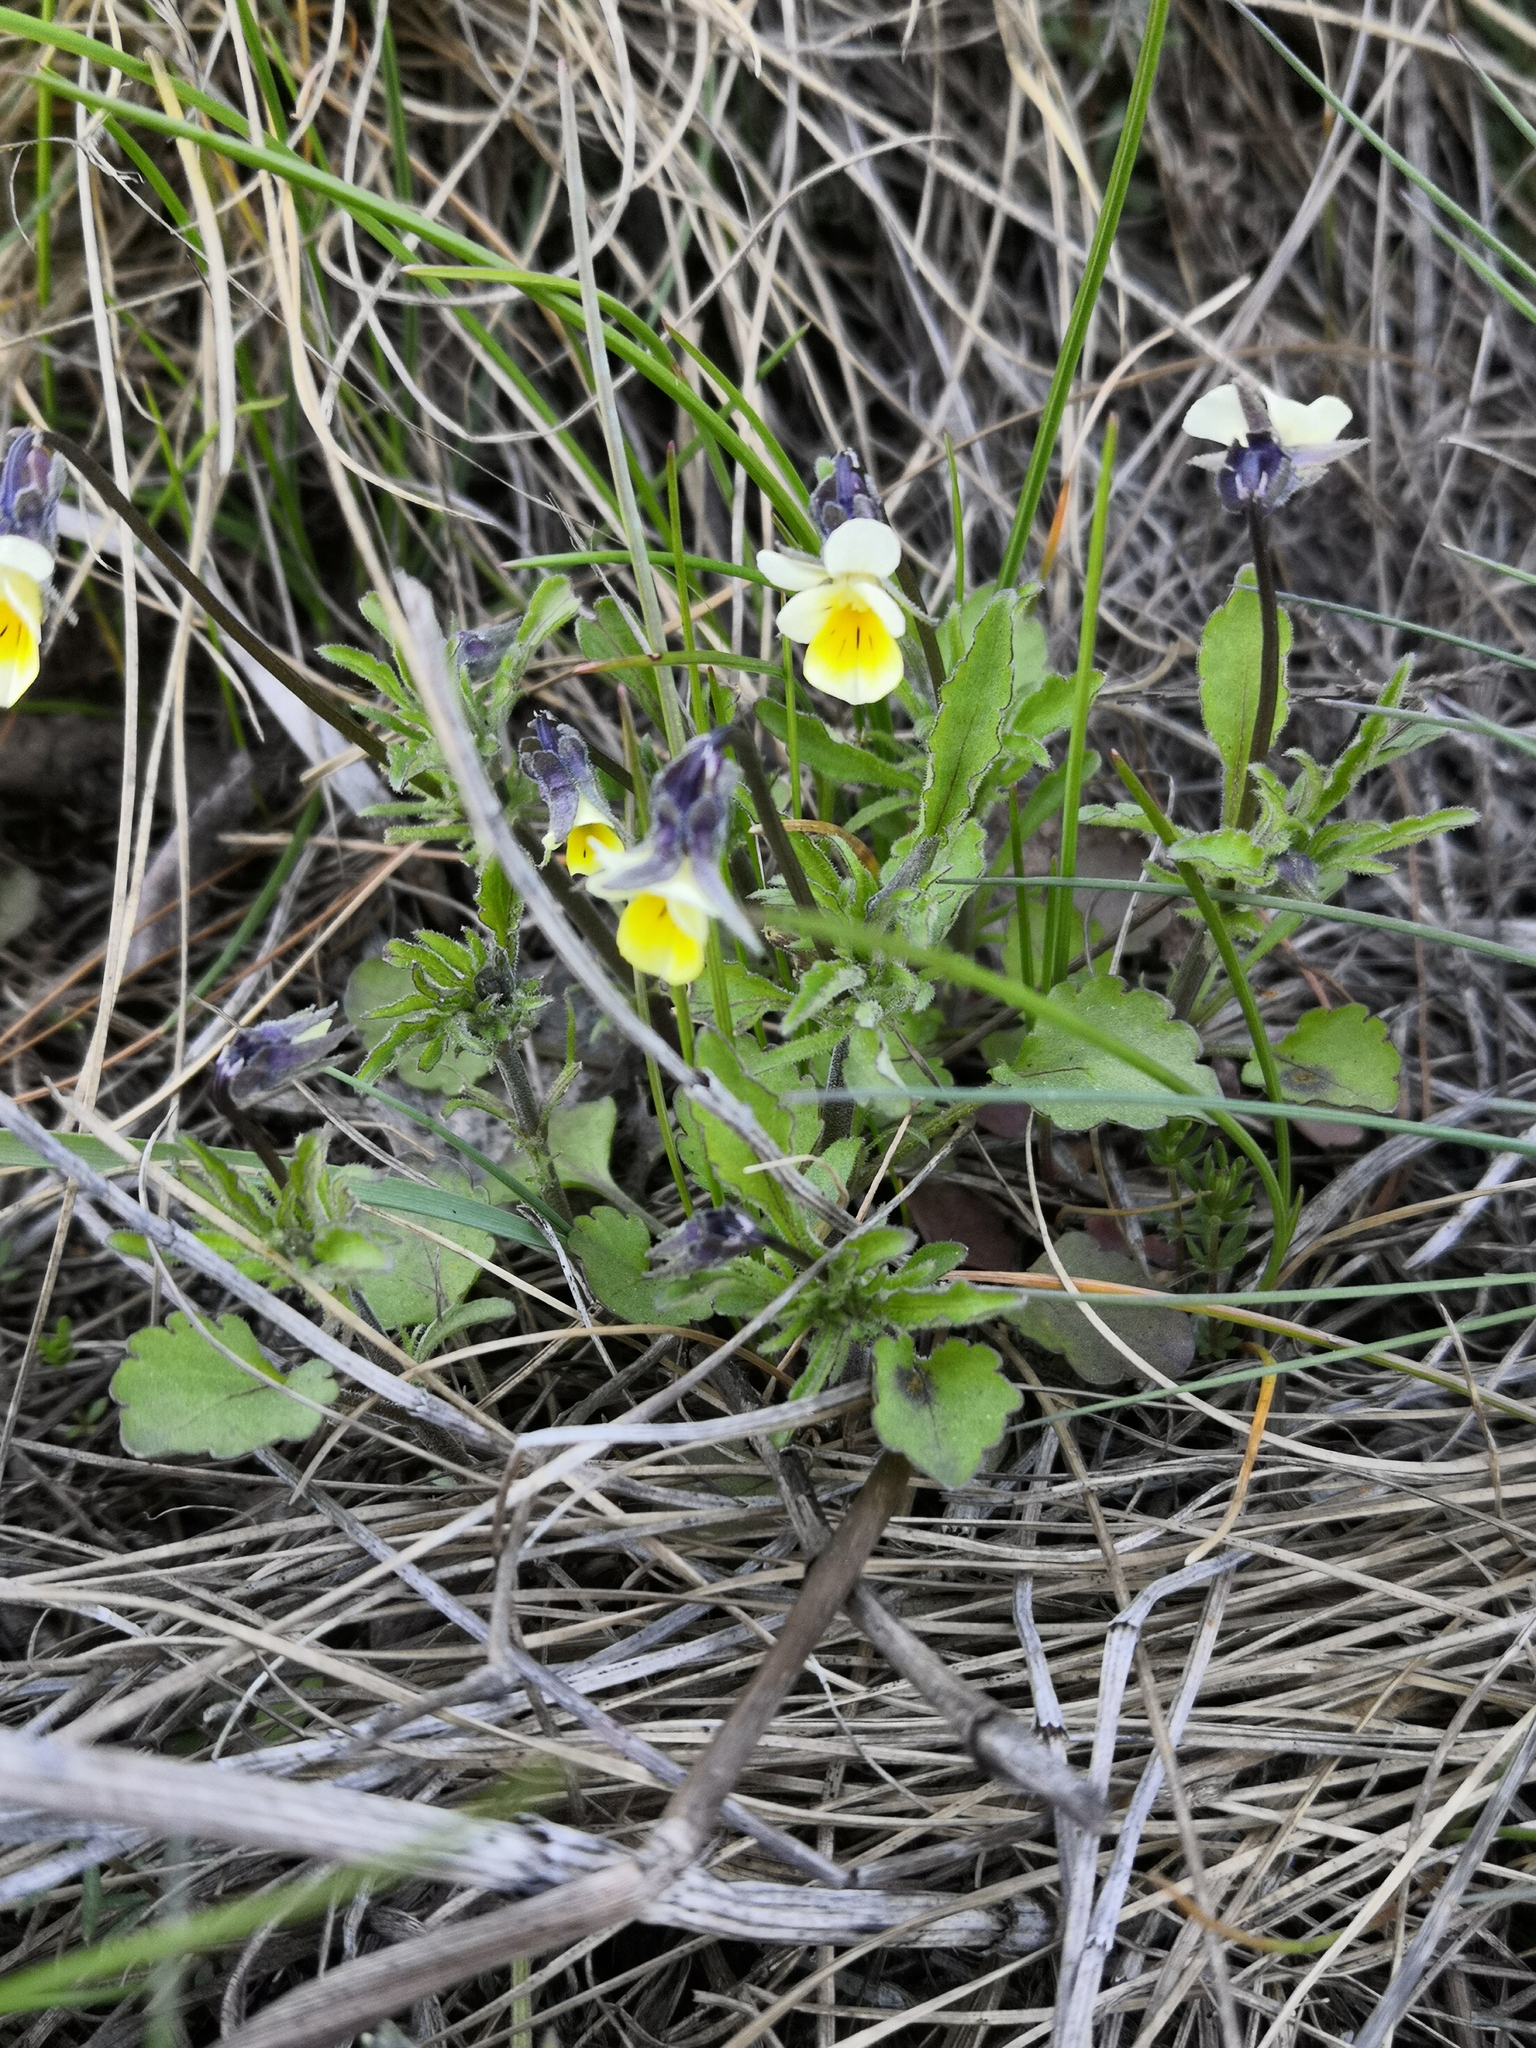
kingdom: Plantae
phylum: Tracheophyta
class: Magnoliopsida
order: Malpighiales
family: Violaceae
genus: Viola
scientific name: Viola arvensis
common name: Field pansy
